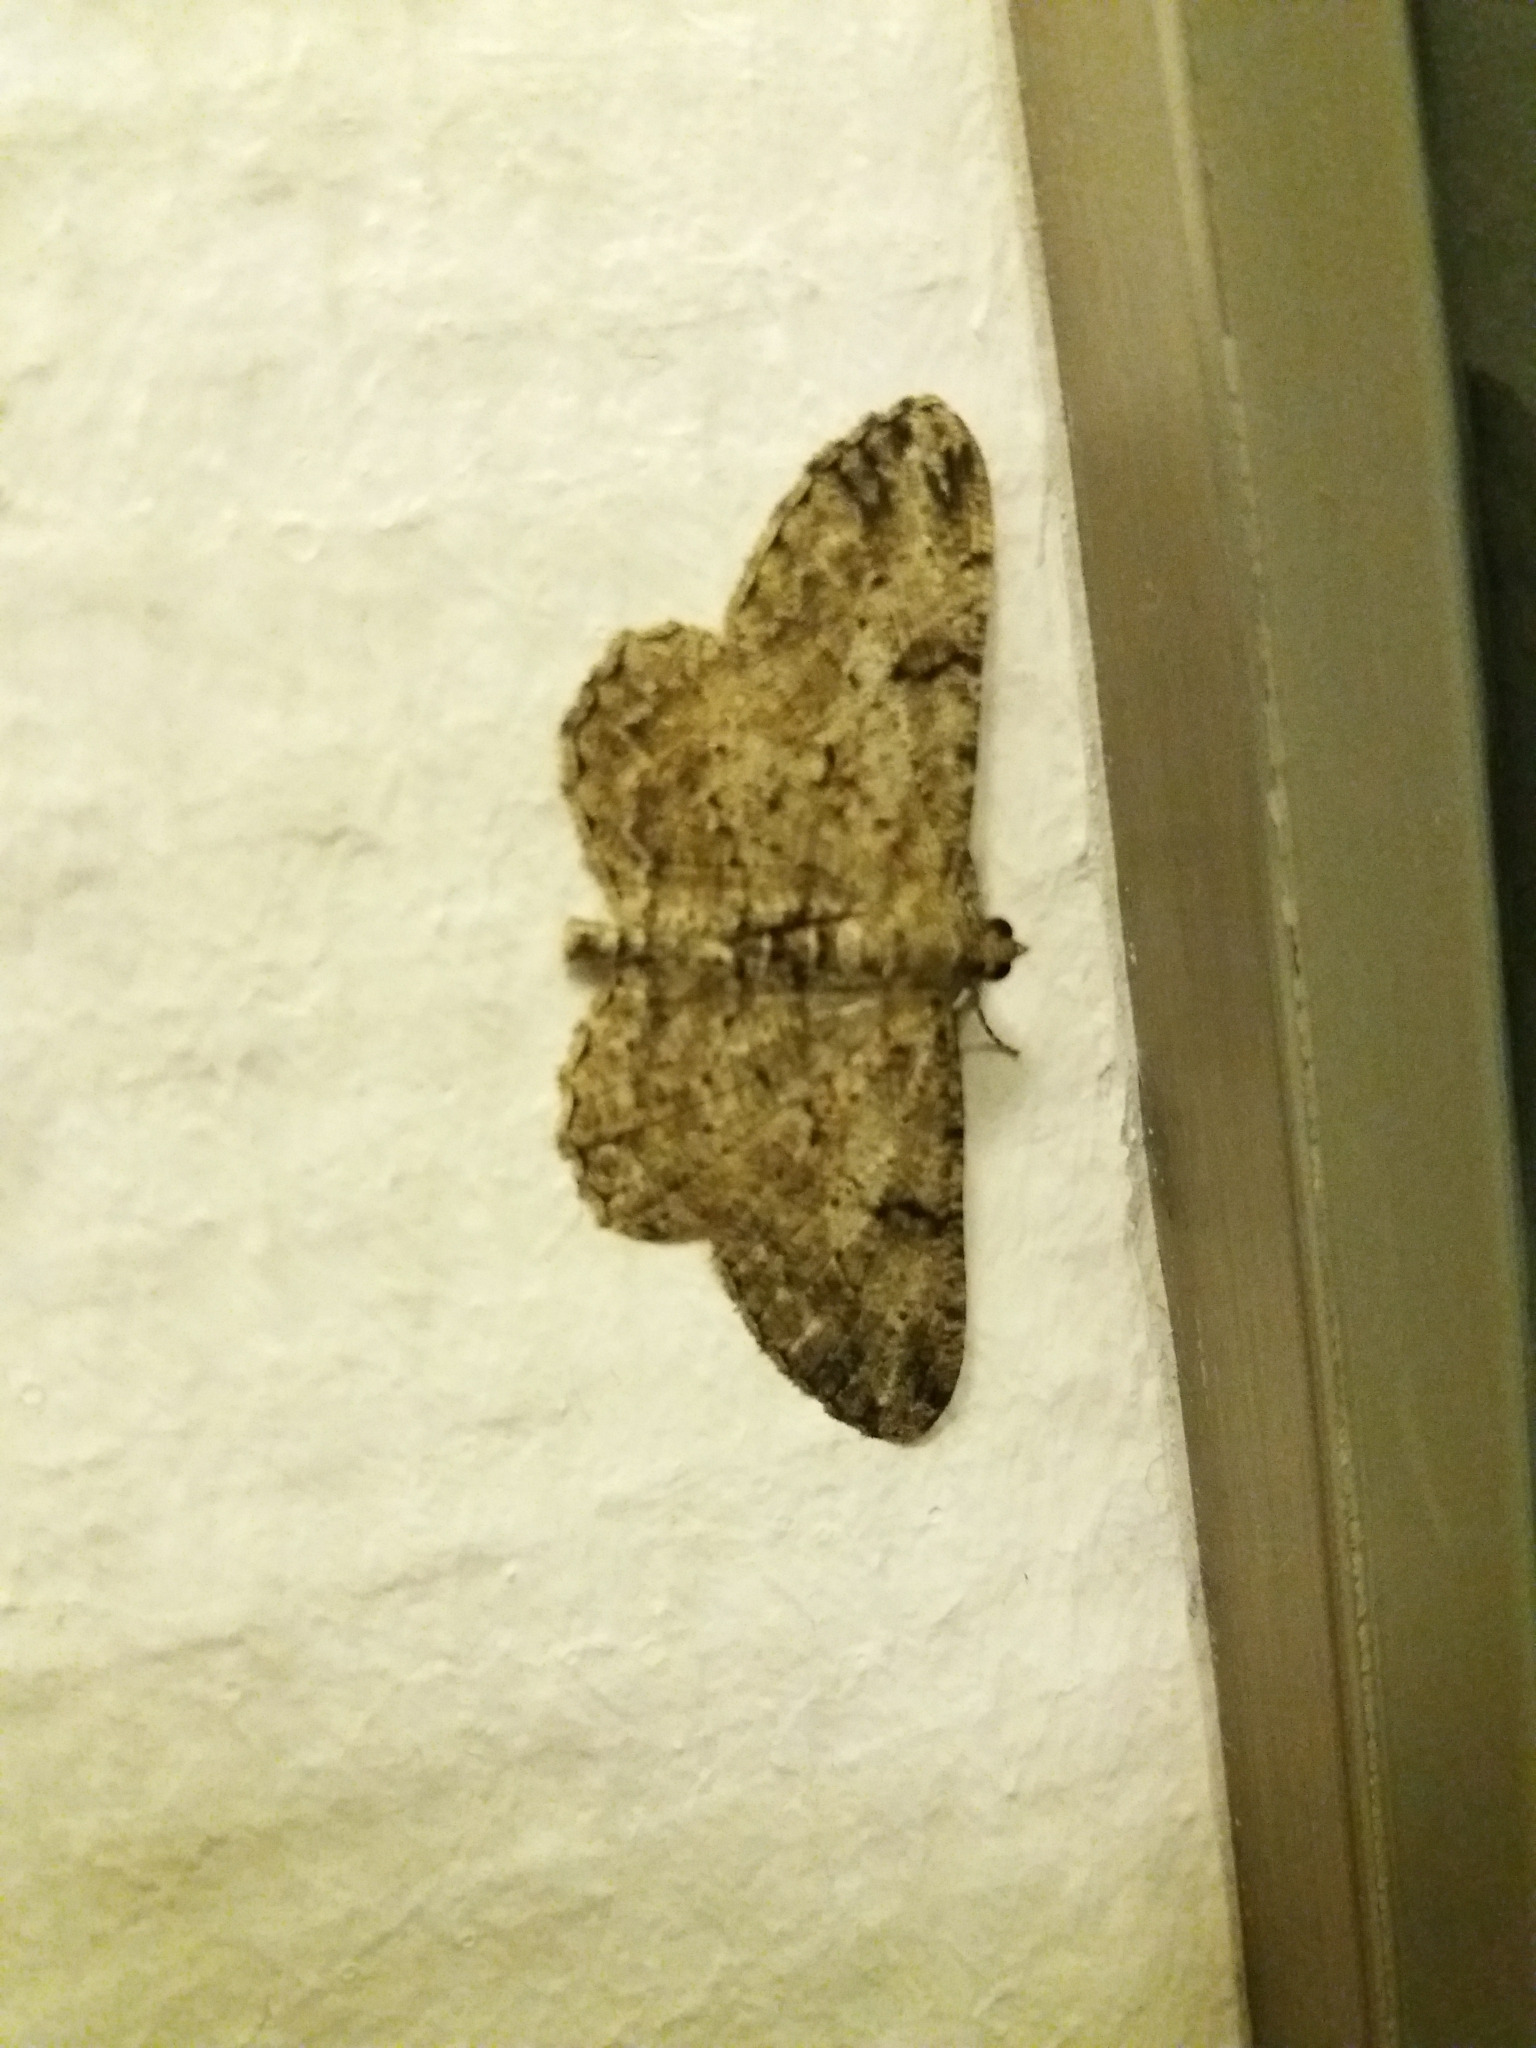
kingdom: Animalia
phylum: Arthropoda
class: Insecta
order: Lepidoptera
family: Geometridae
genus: Peribatodes
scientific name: Peribatodes rhomboidaria
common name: Willow beauty
